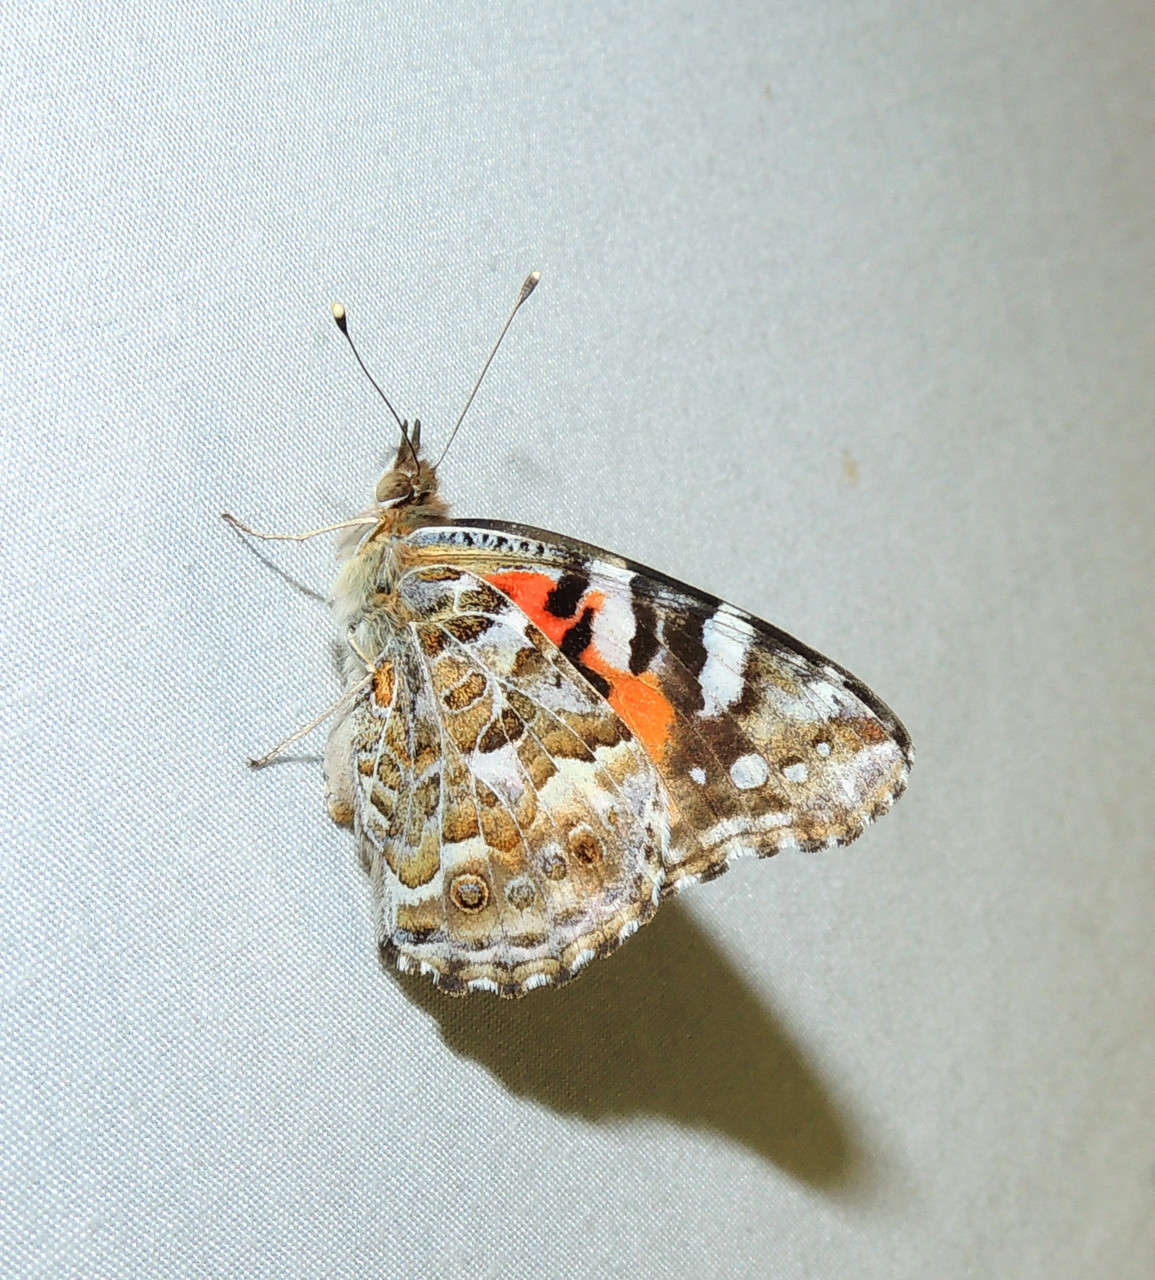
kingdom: Animalia
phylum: Arthropoda
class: Insecta
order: Lepidoptera
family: Nymphalidae
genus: Vanessa
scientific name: Vanessa kershawi
